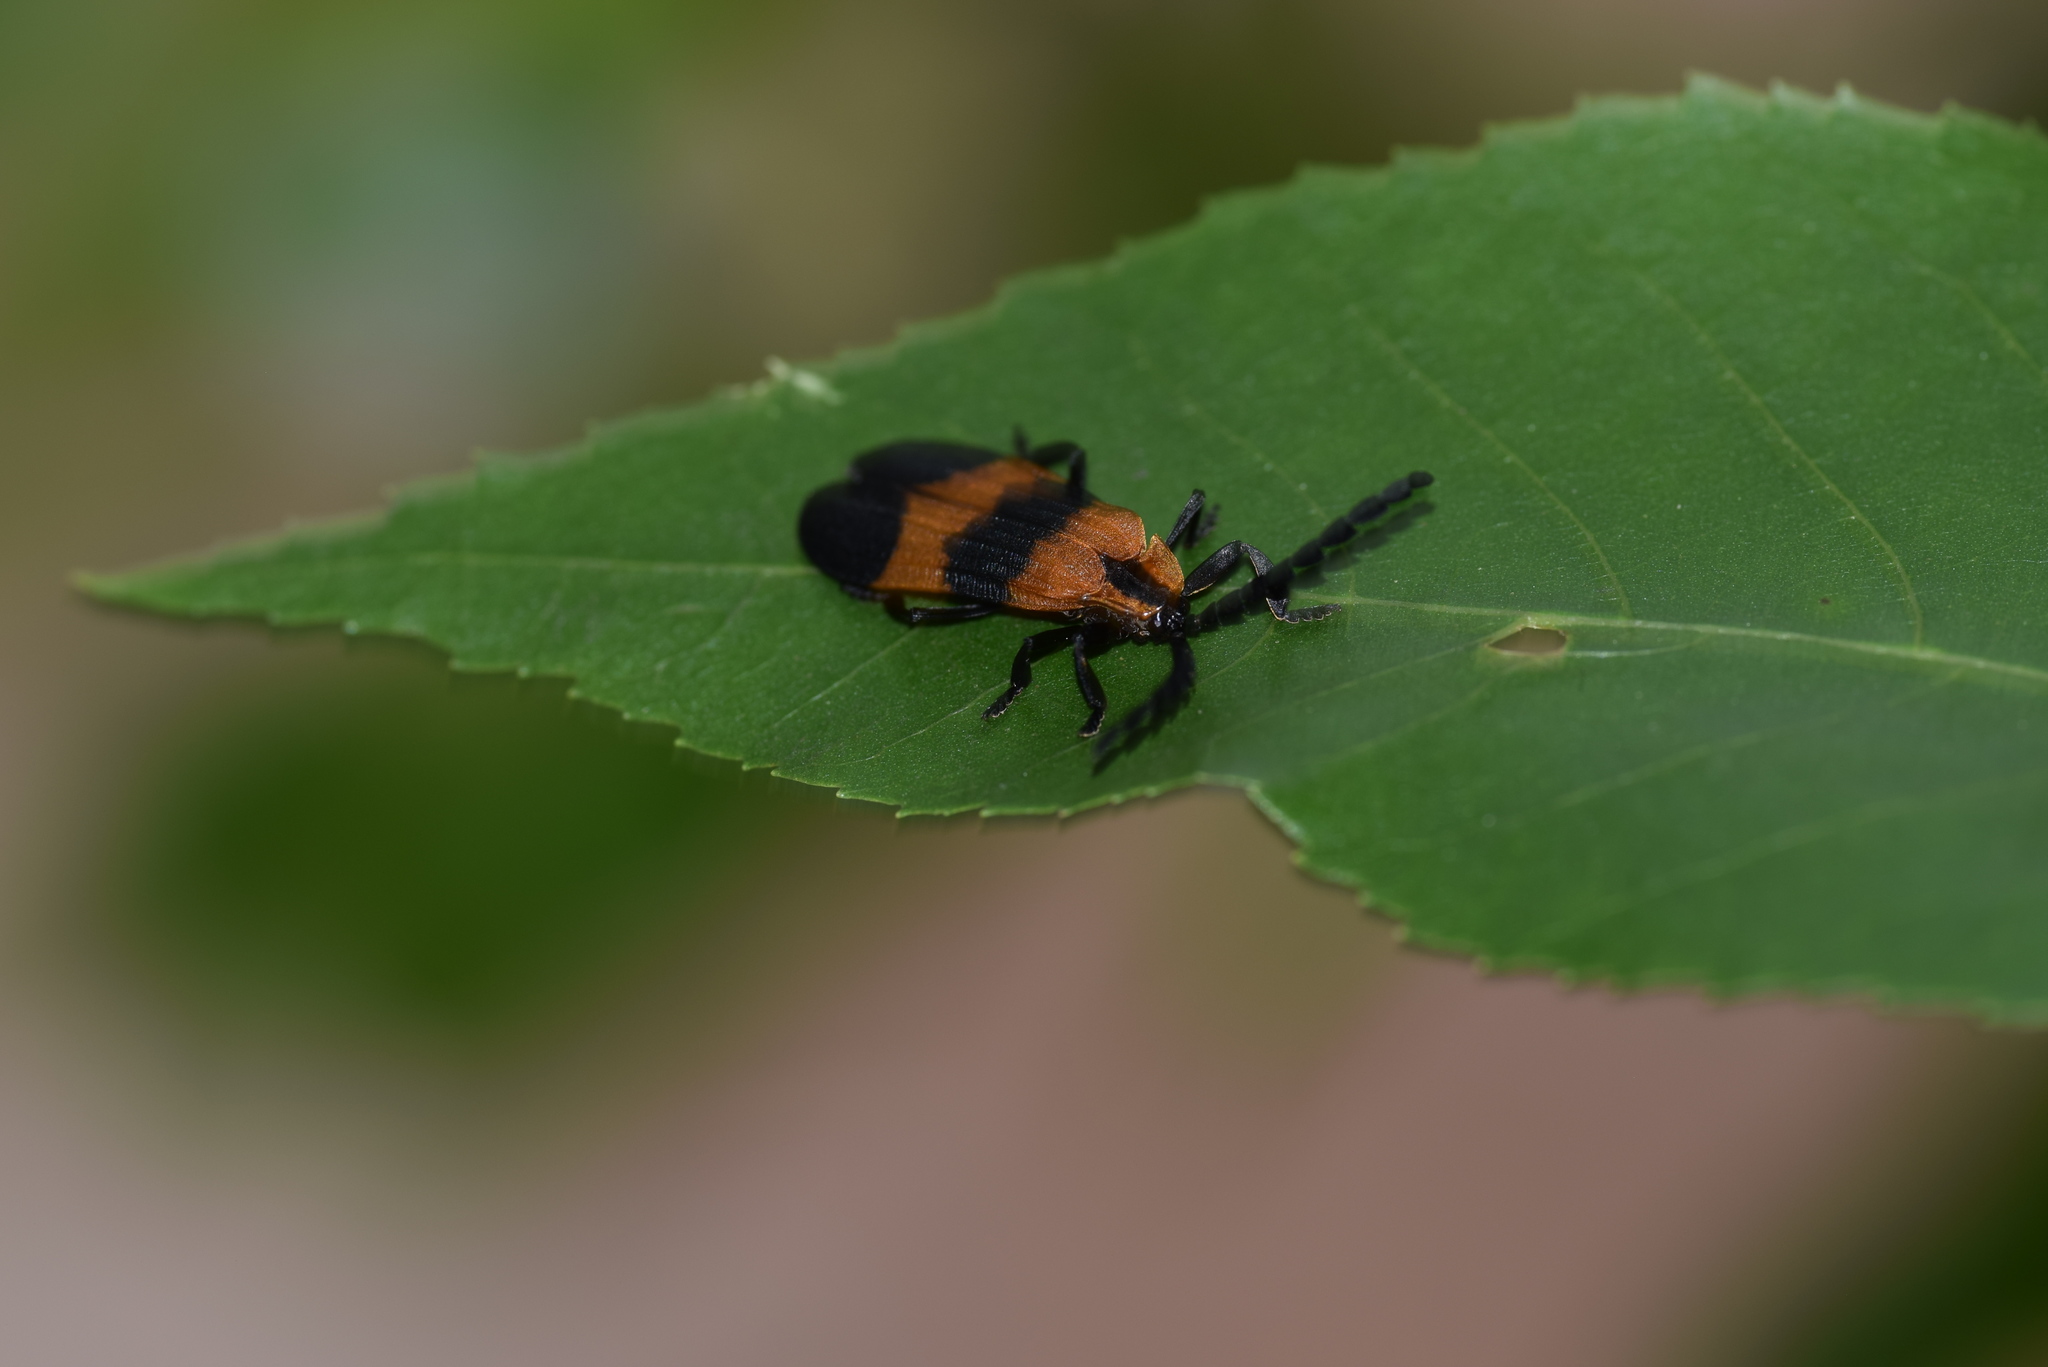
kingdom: Animalia
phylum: Arthropoda
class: Insecta
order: Coleoptera
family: Lycidae
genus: Calopteron
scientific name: Calopteron reticulatum
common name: Banded net-winged beetle
